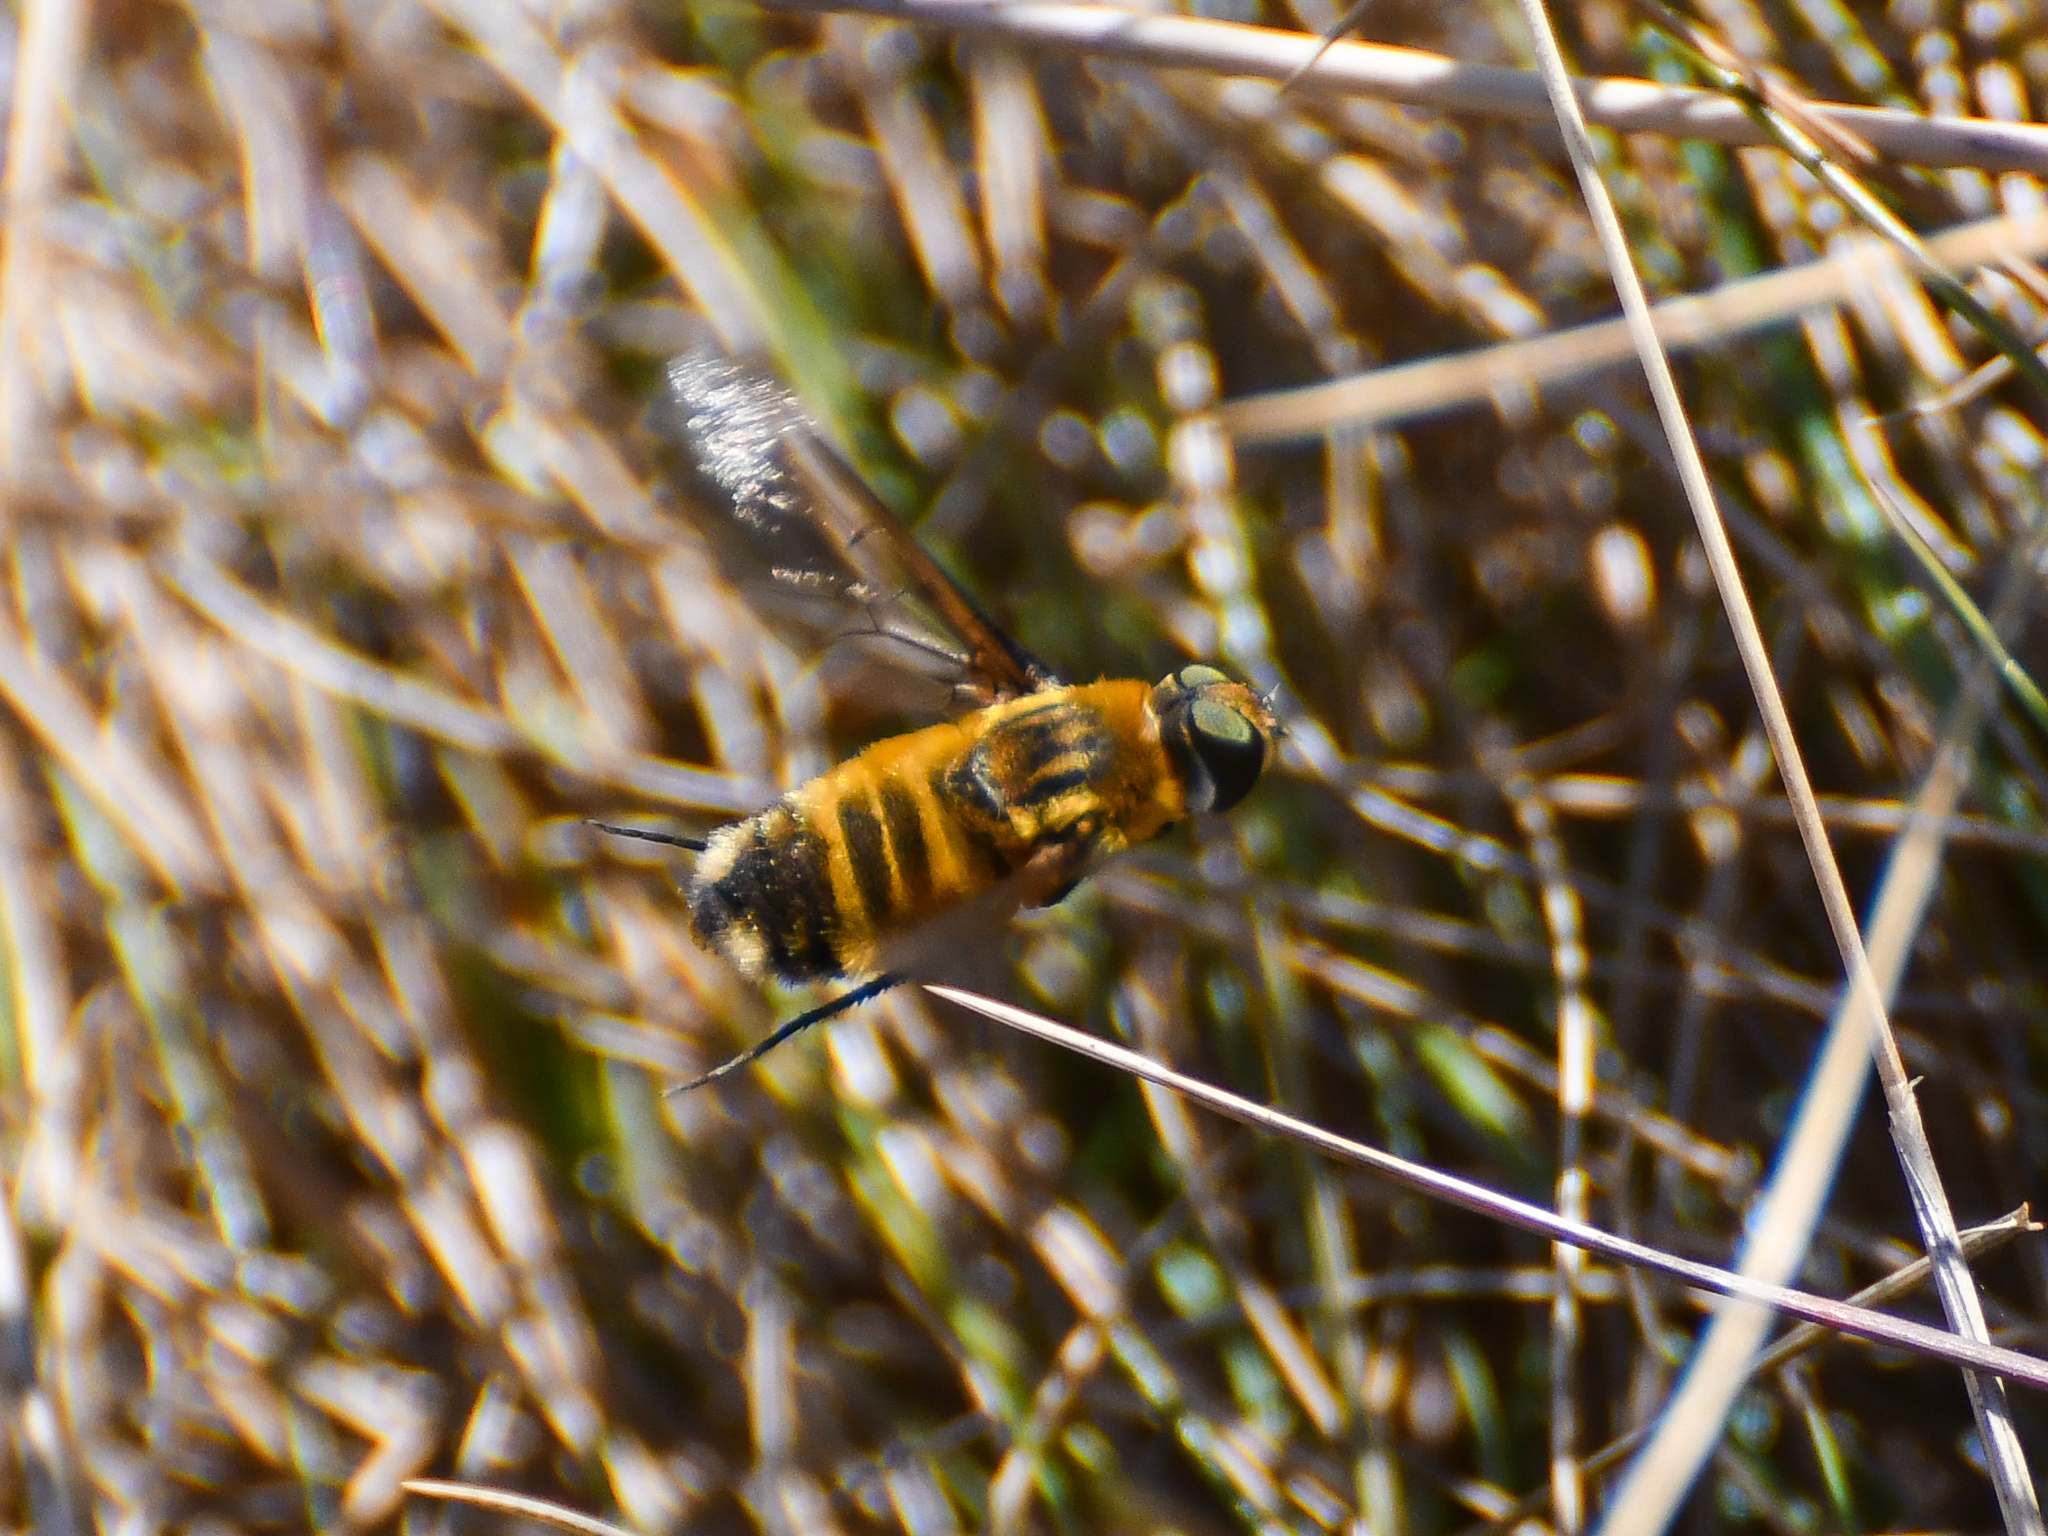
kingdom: Animalia
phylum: Arthropoda
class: Insecta
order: Diptera
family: Bombyliidae
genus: Villa
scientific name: Villa modesta
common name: Dune villa
